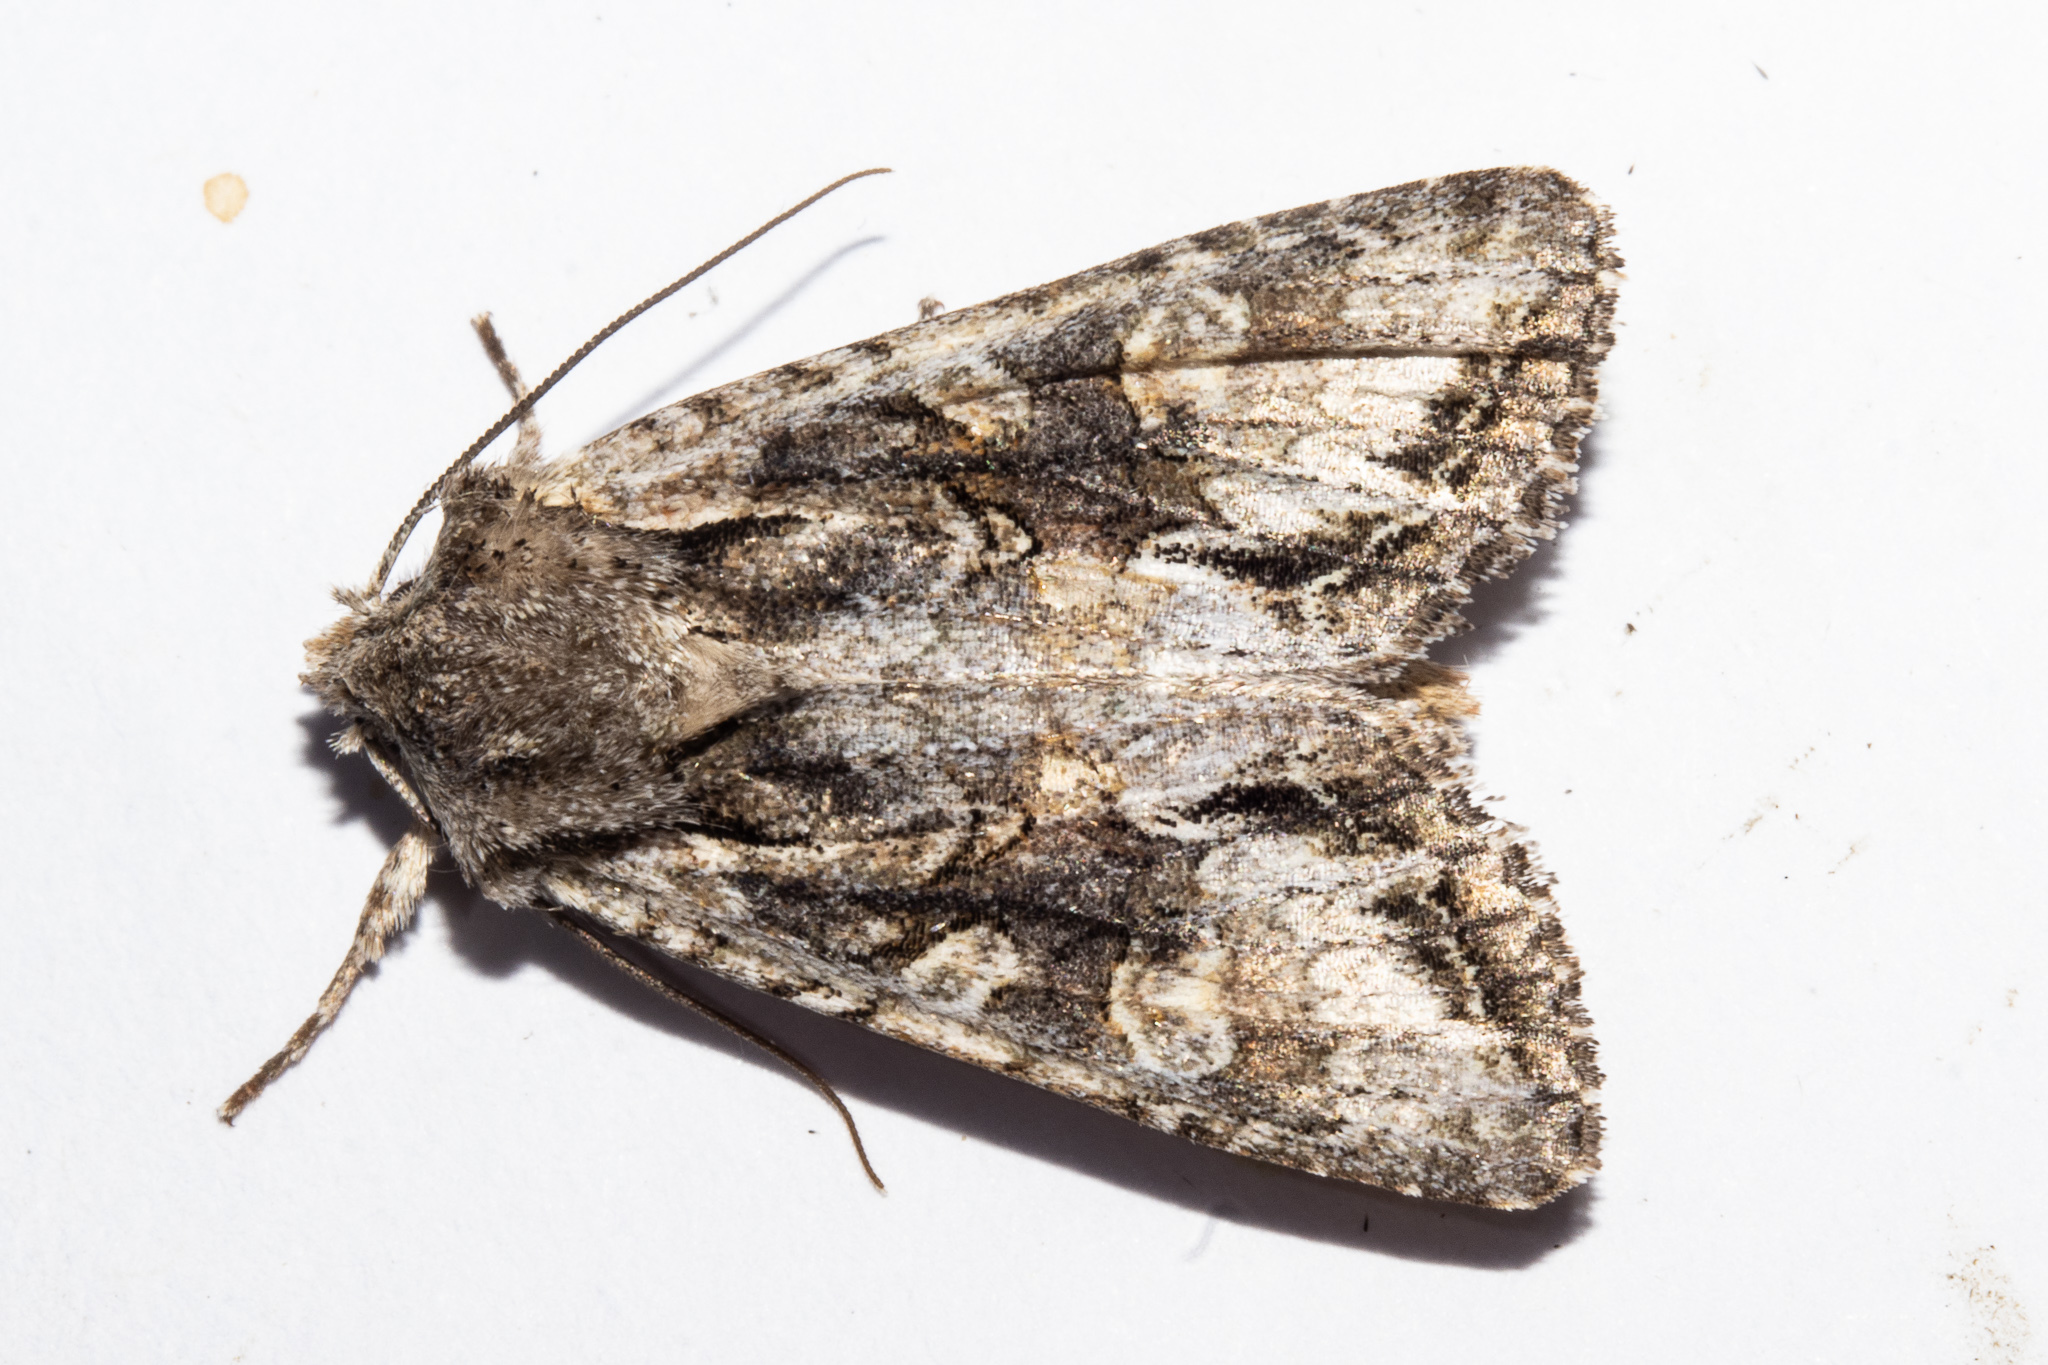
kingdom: Animalia
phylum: Arthropoda
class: Insecta
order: Lepidoptera
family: Noctuidae
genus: Ichneutica
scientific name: Ichneutica mutans
